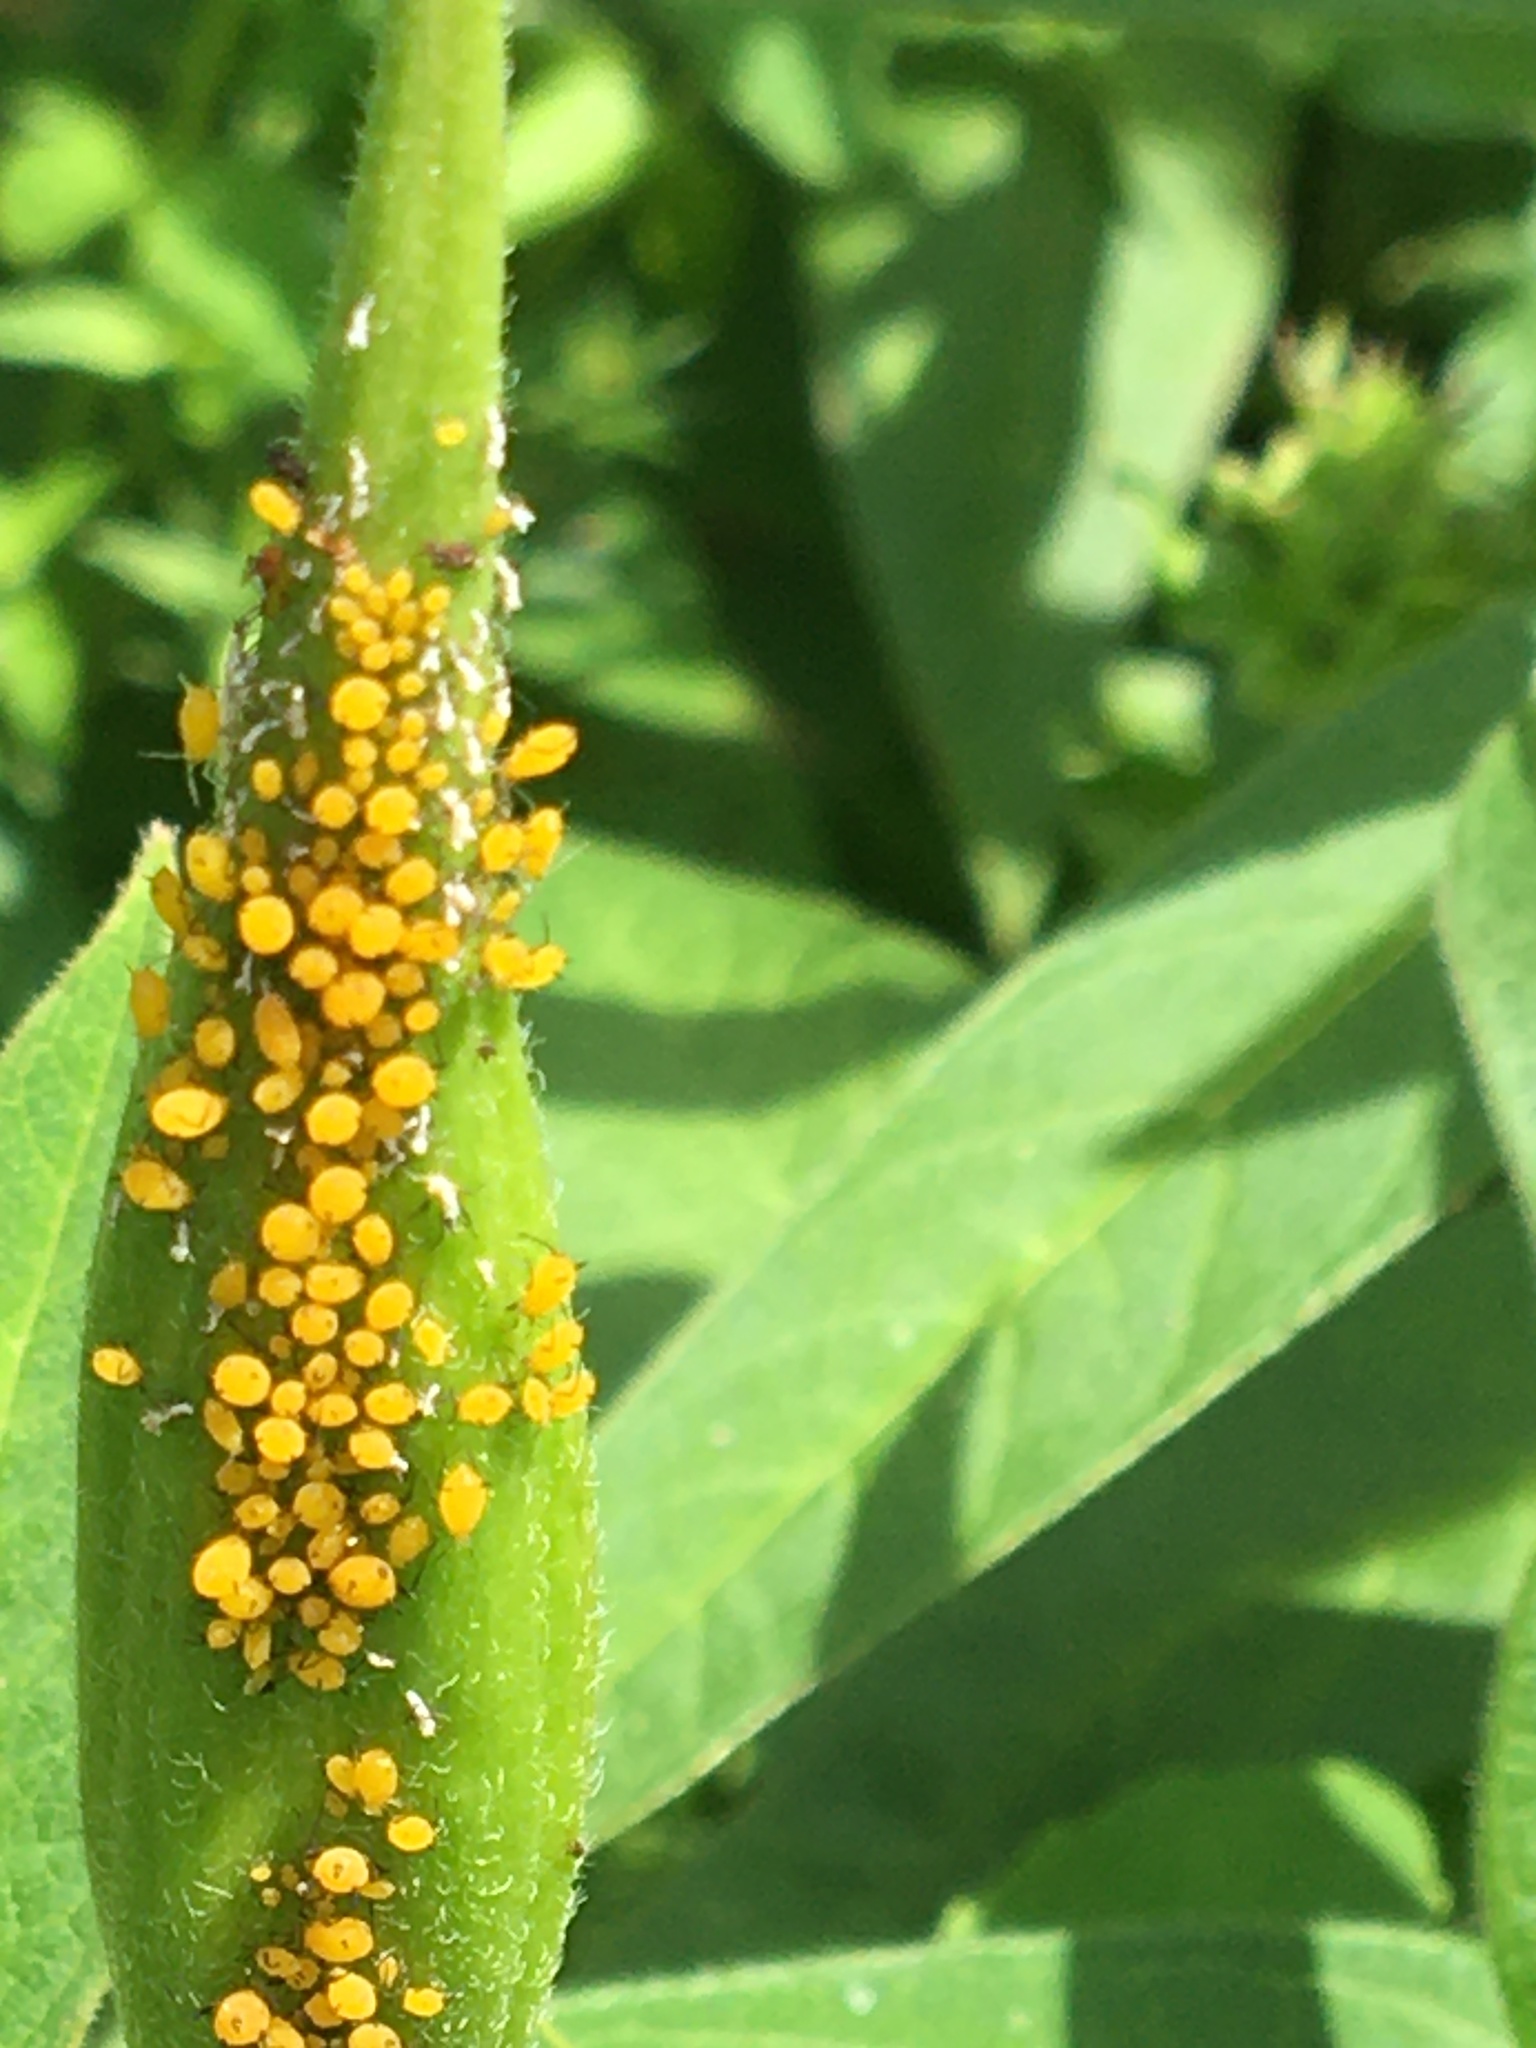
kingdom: Animalia
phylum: Arthropoda
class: Insecta
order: Hemiptera
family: Aphididae
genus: Aphis
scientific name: Aphis nerii
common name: Oleander aphid
